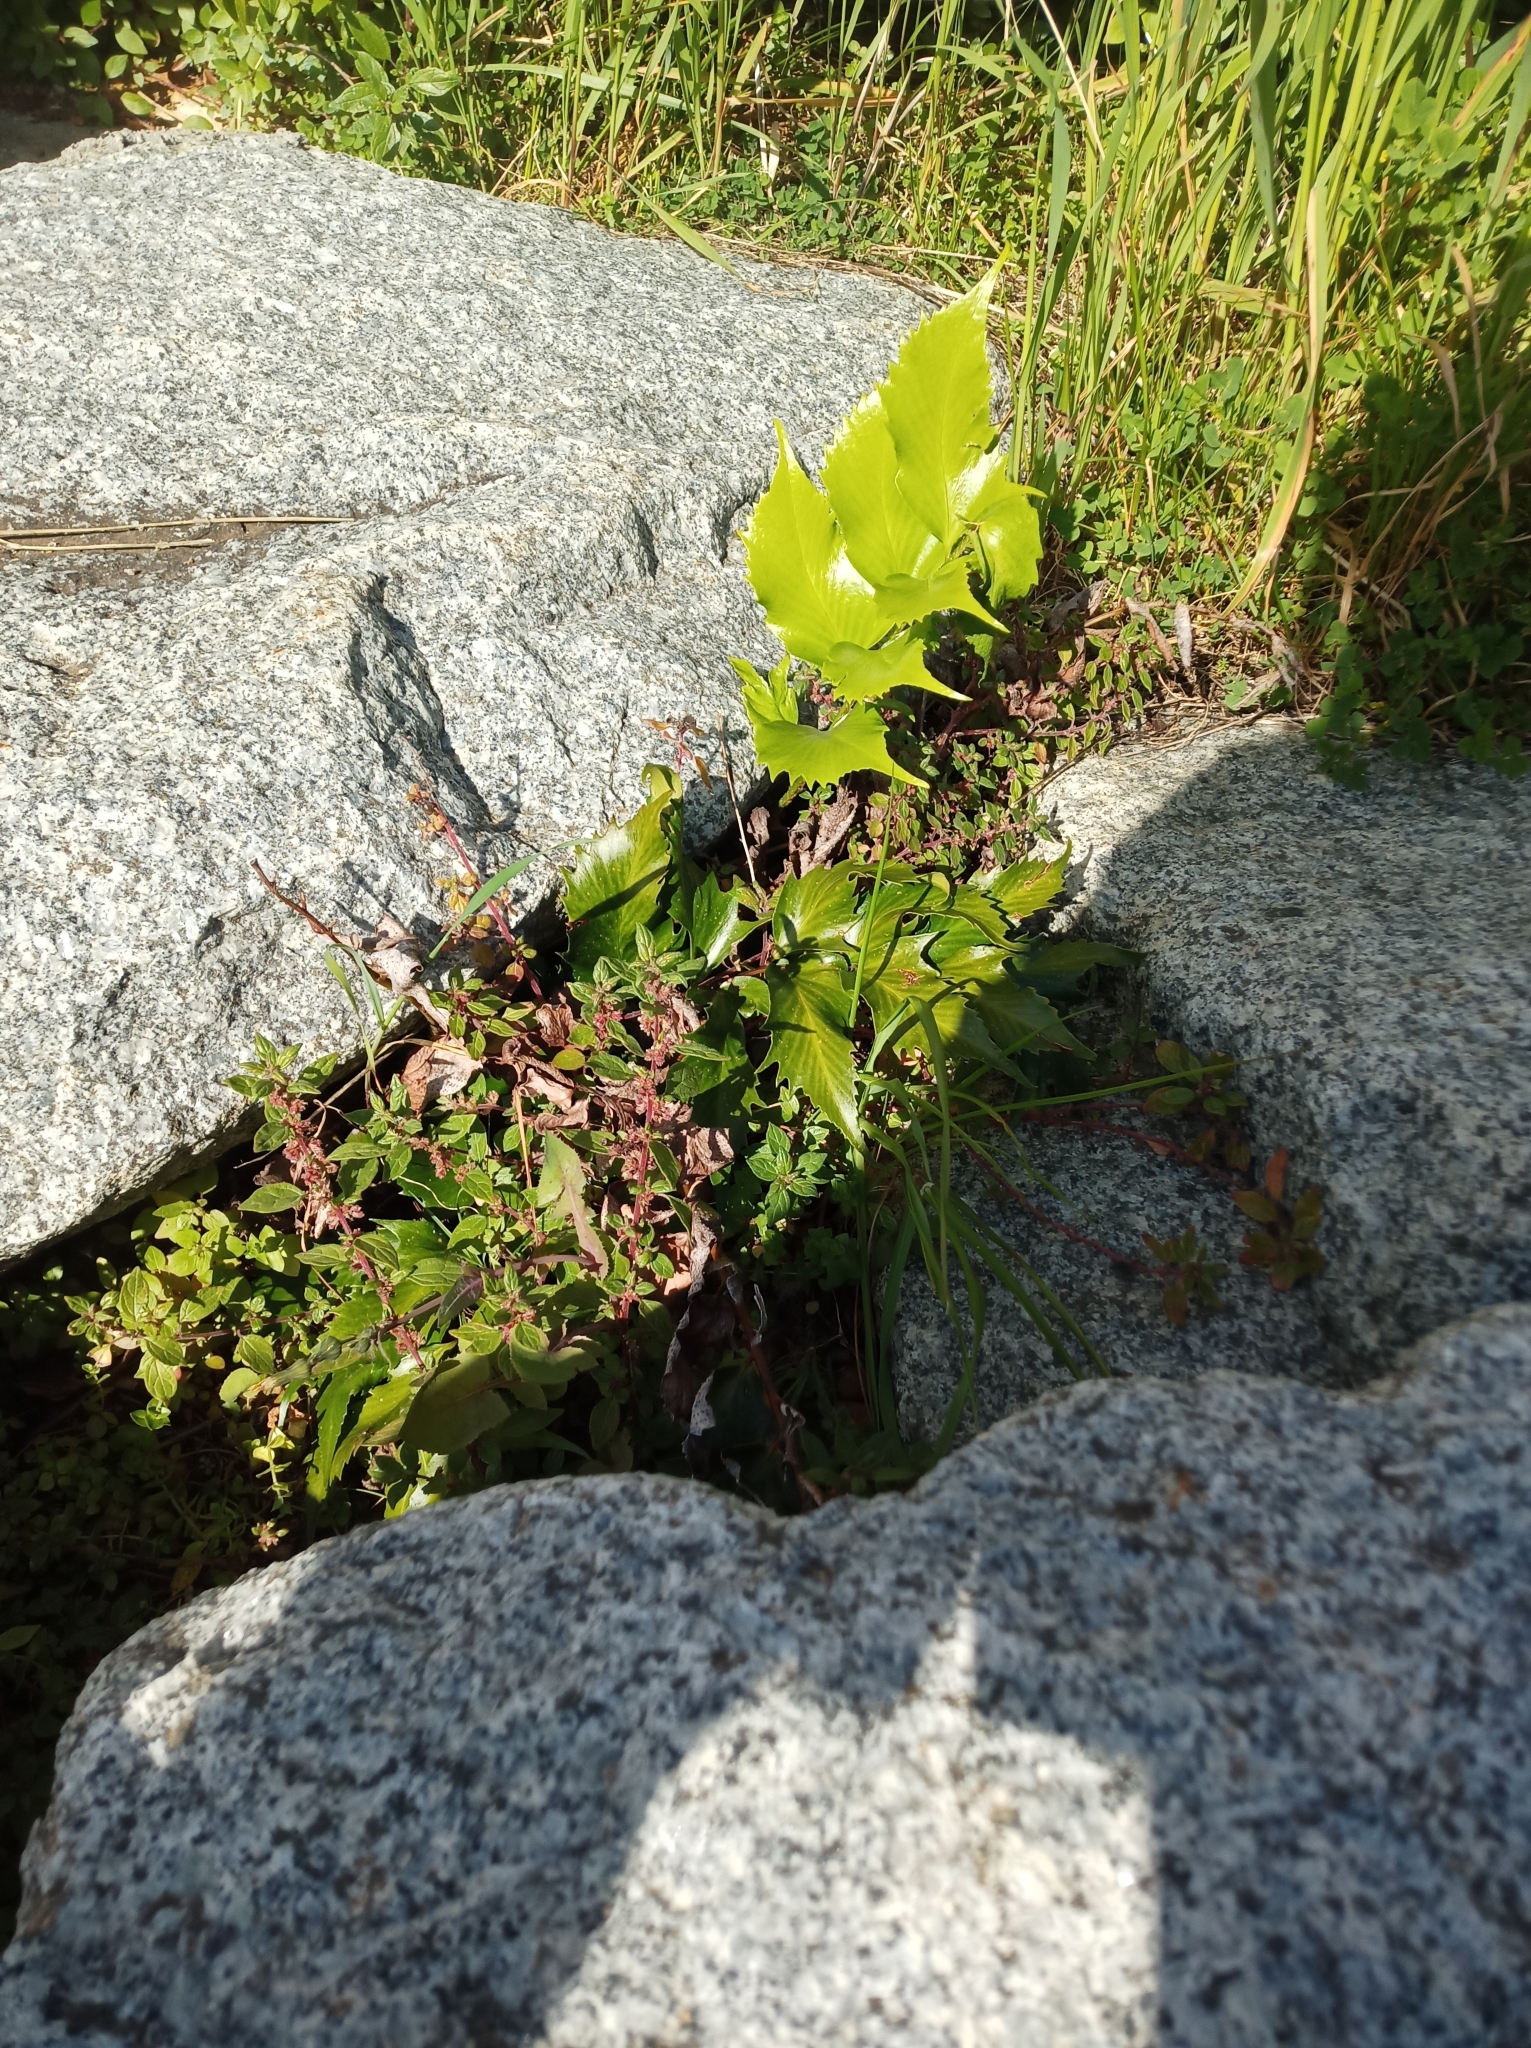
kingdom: Plantae
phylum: Tracheophyta
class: Polypodiopsida
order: Polypodiales
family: Dryopteridaceae
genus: Cyrtomium
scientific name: Cyrtomium falcatum
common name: House holly-fern
